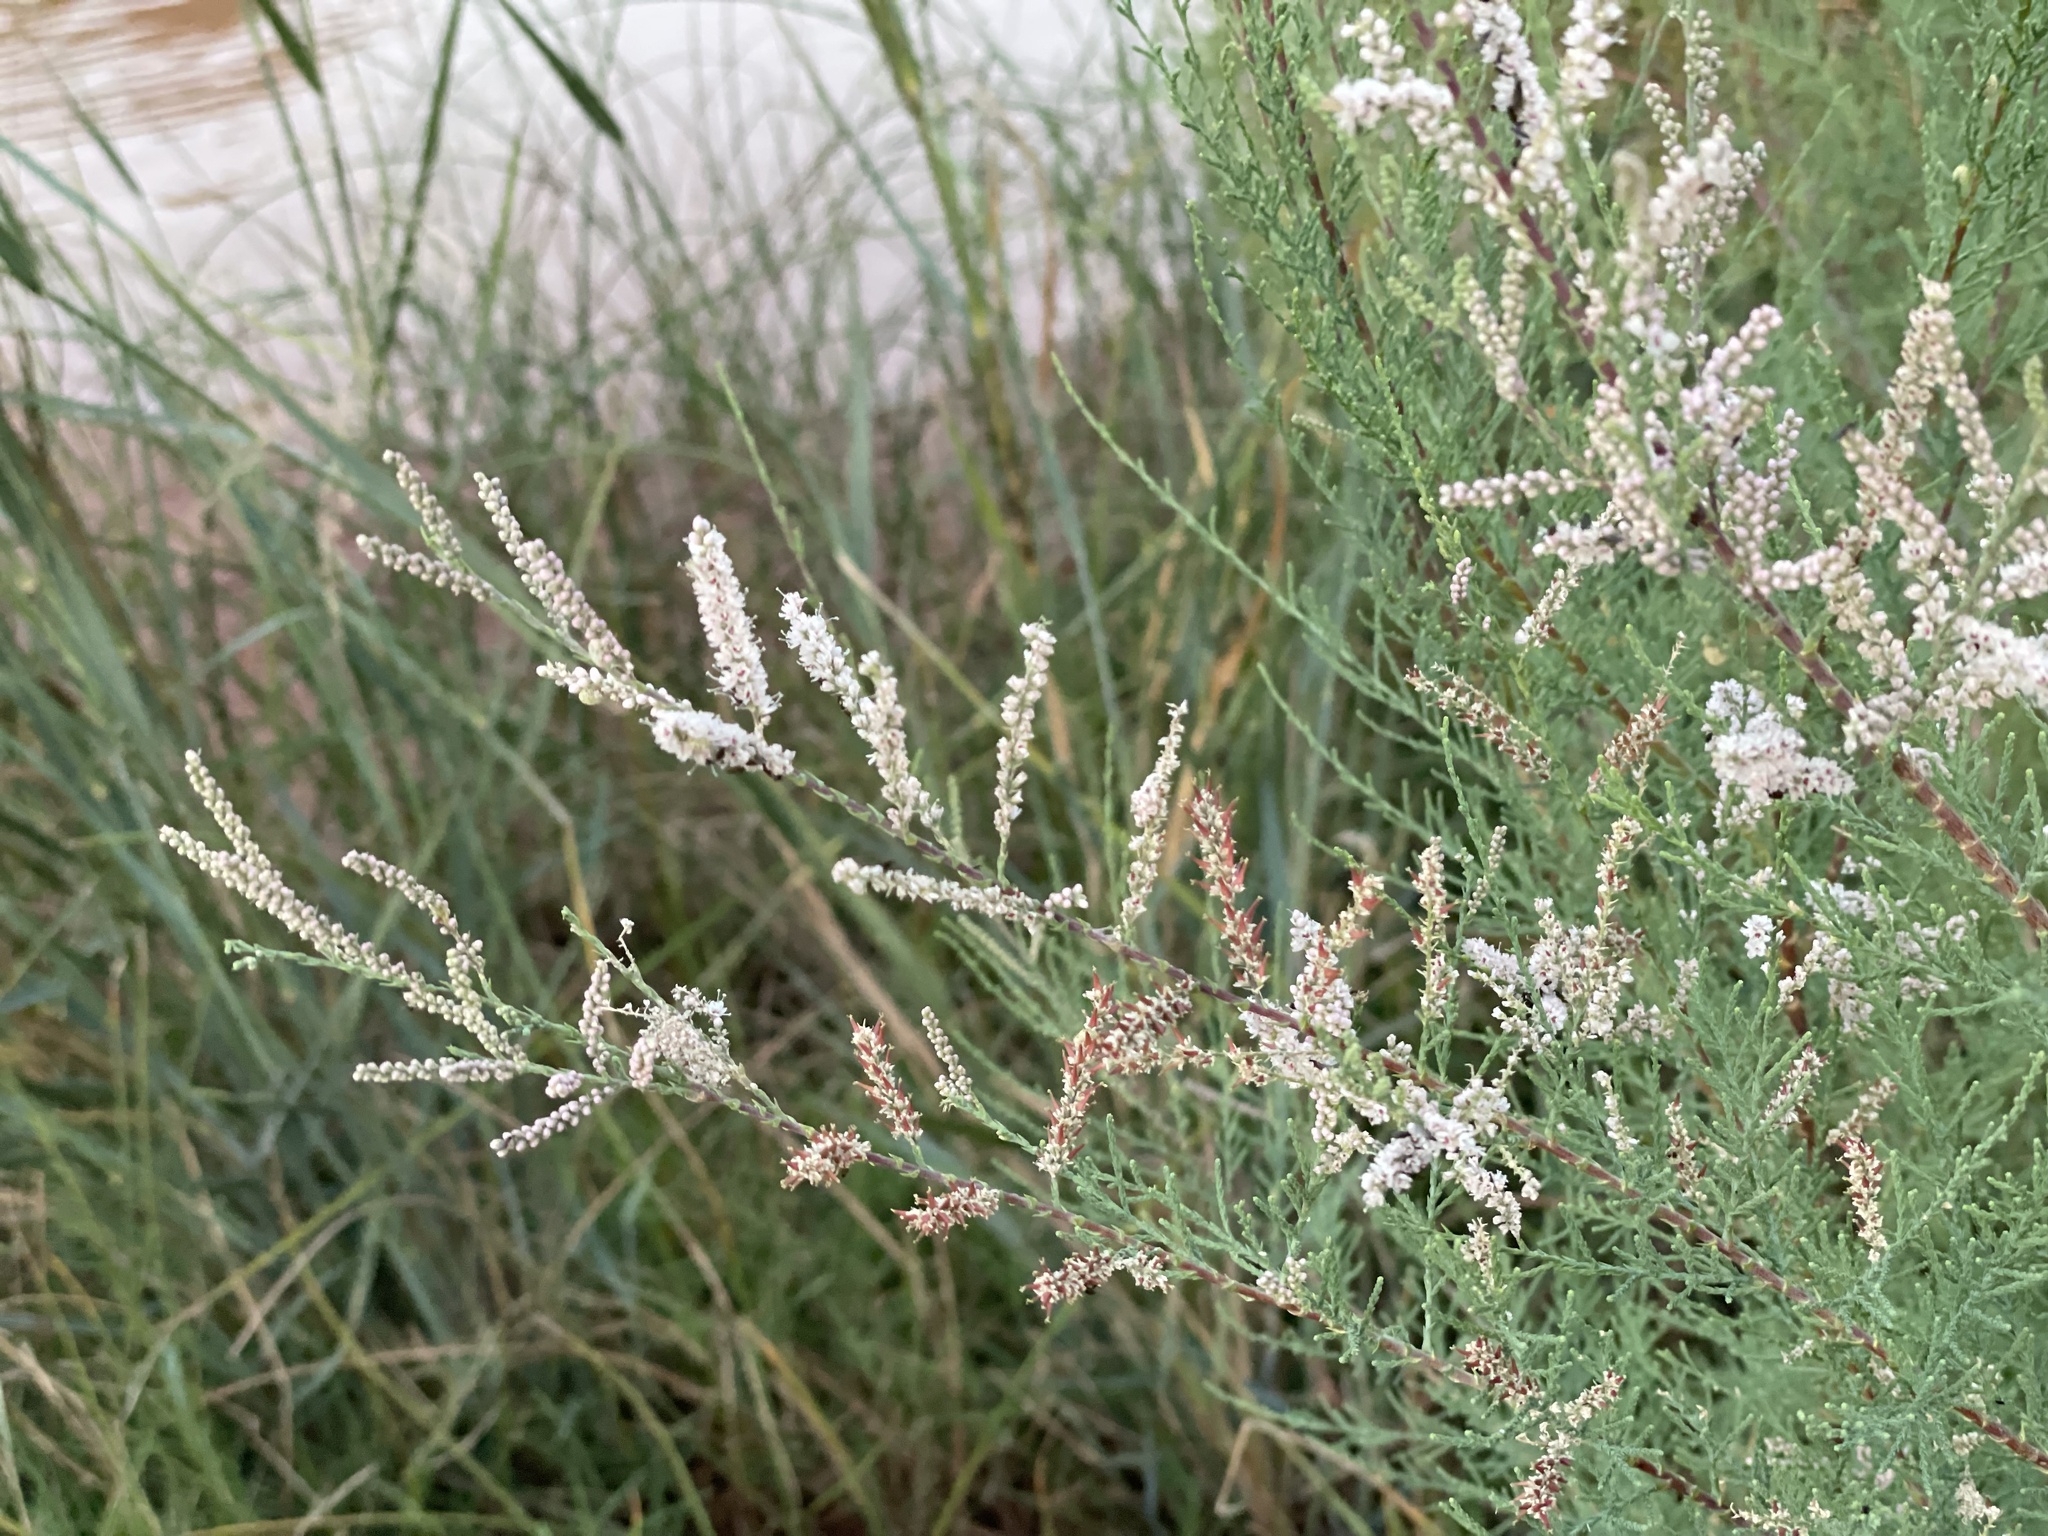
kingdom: Plantae
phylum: Tracheophyta
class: Magnoliopsida
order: Caryophyllales
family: Tamaricaceae
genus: Tamarix
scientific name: Tamarix ramosissima
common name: Pink tamarisk
